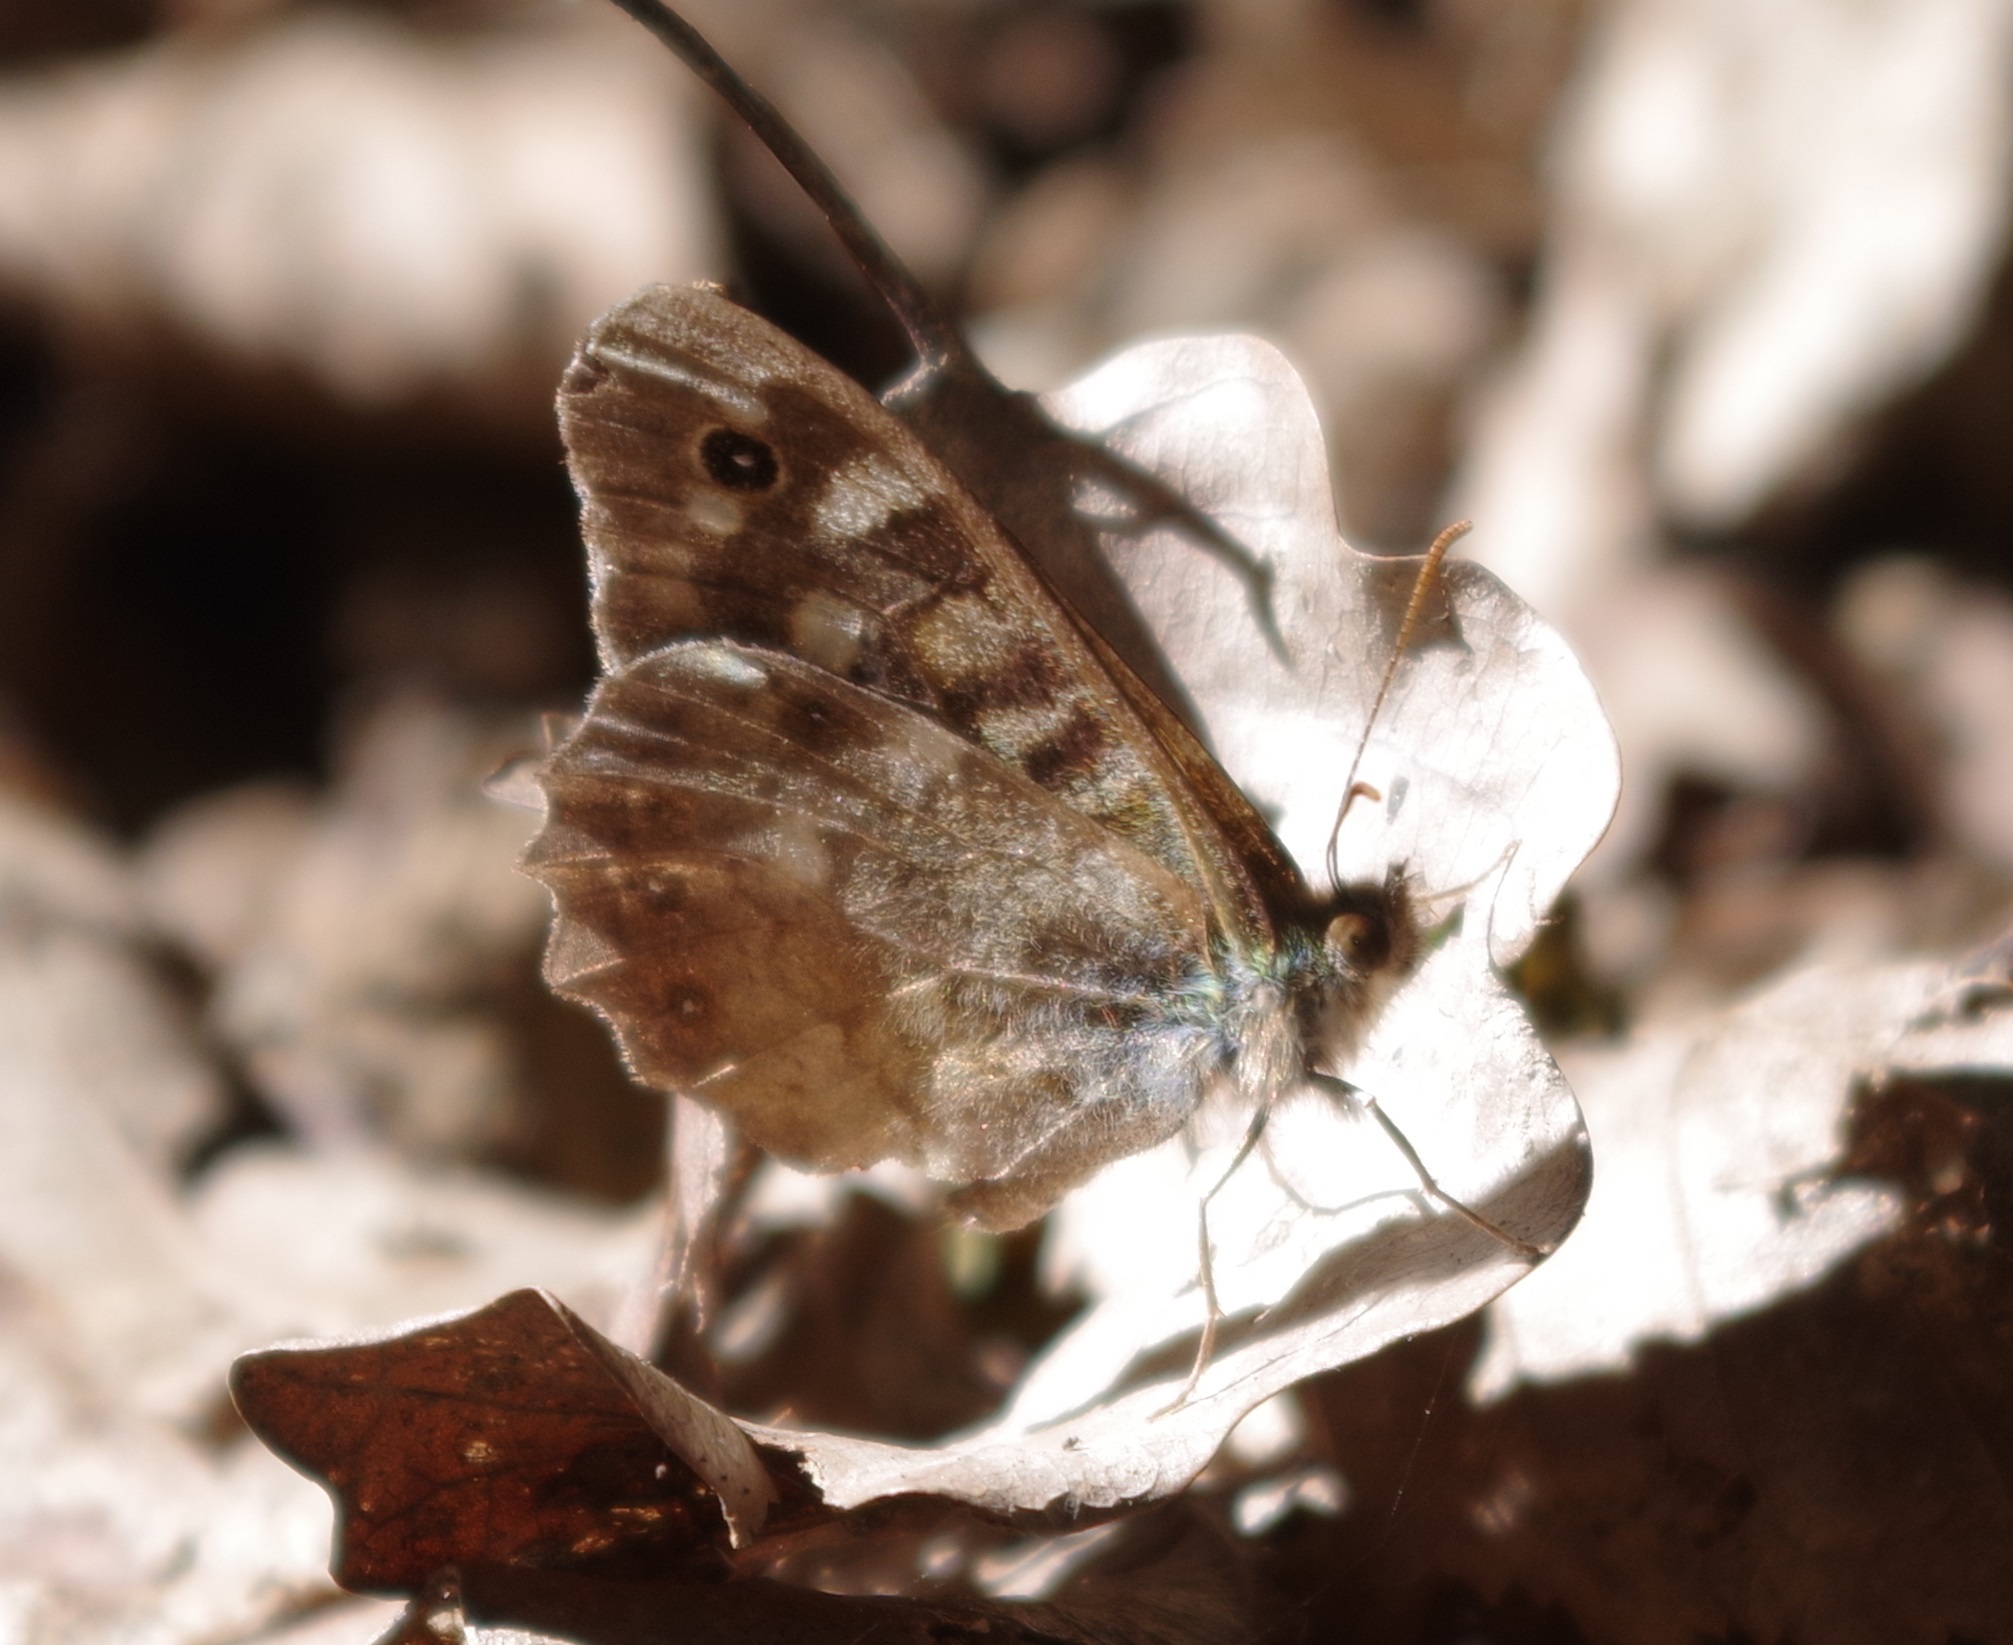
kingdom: Animalia
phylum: Arthropoda
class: Insecta
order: Lepidoptera
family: Nymphalidae
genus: Pararge
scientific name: Pararge aegeria
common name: Speckled wood
